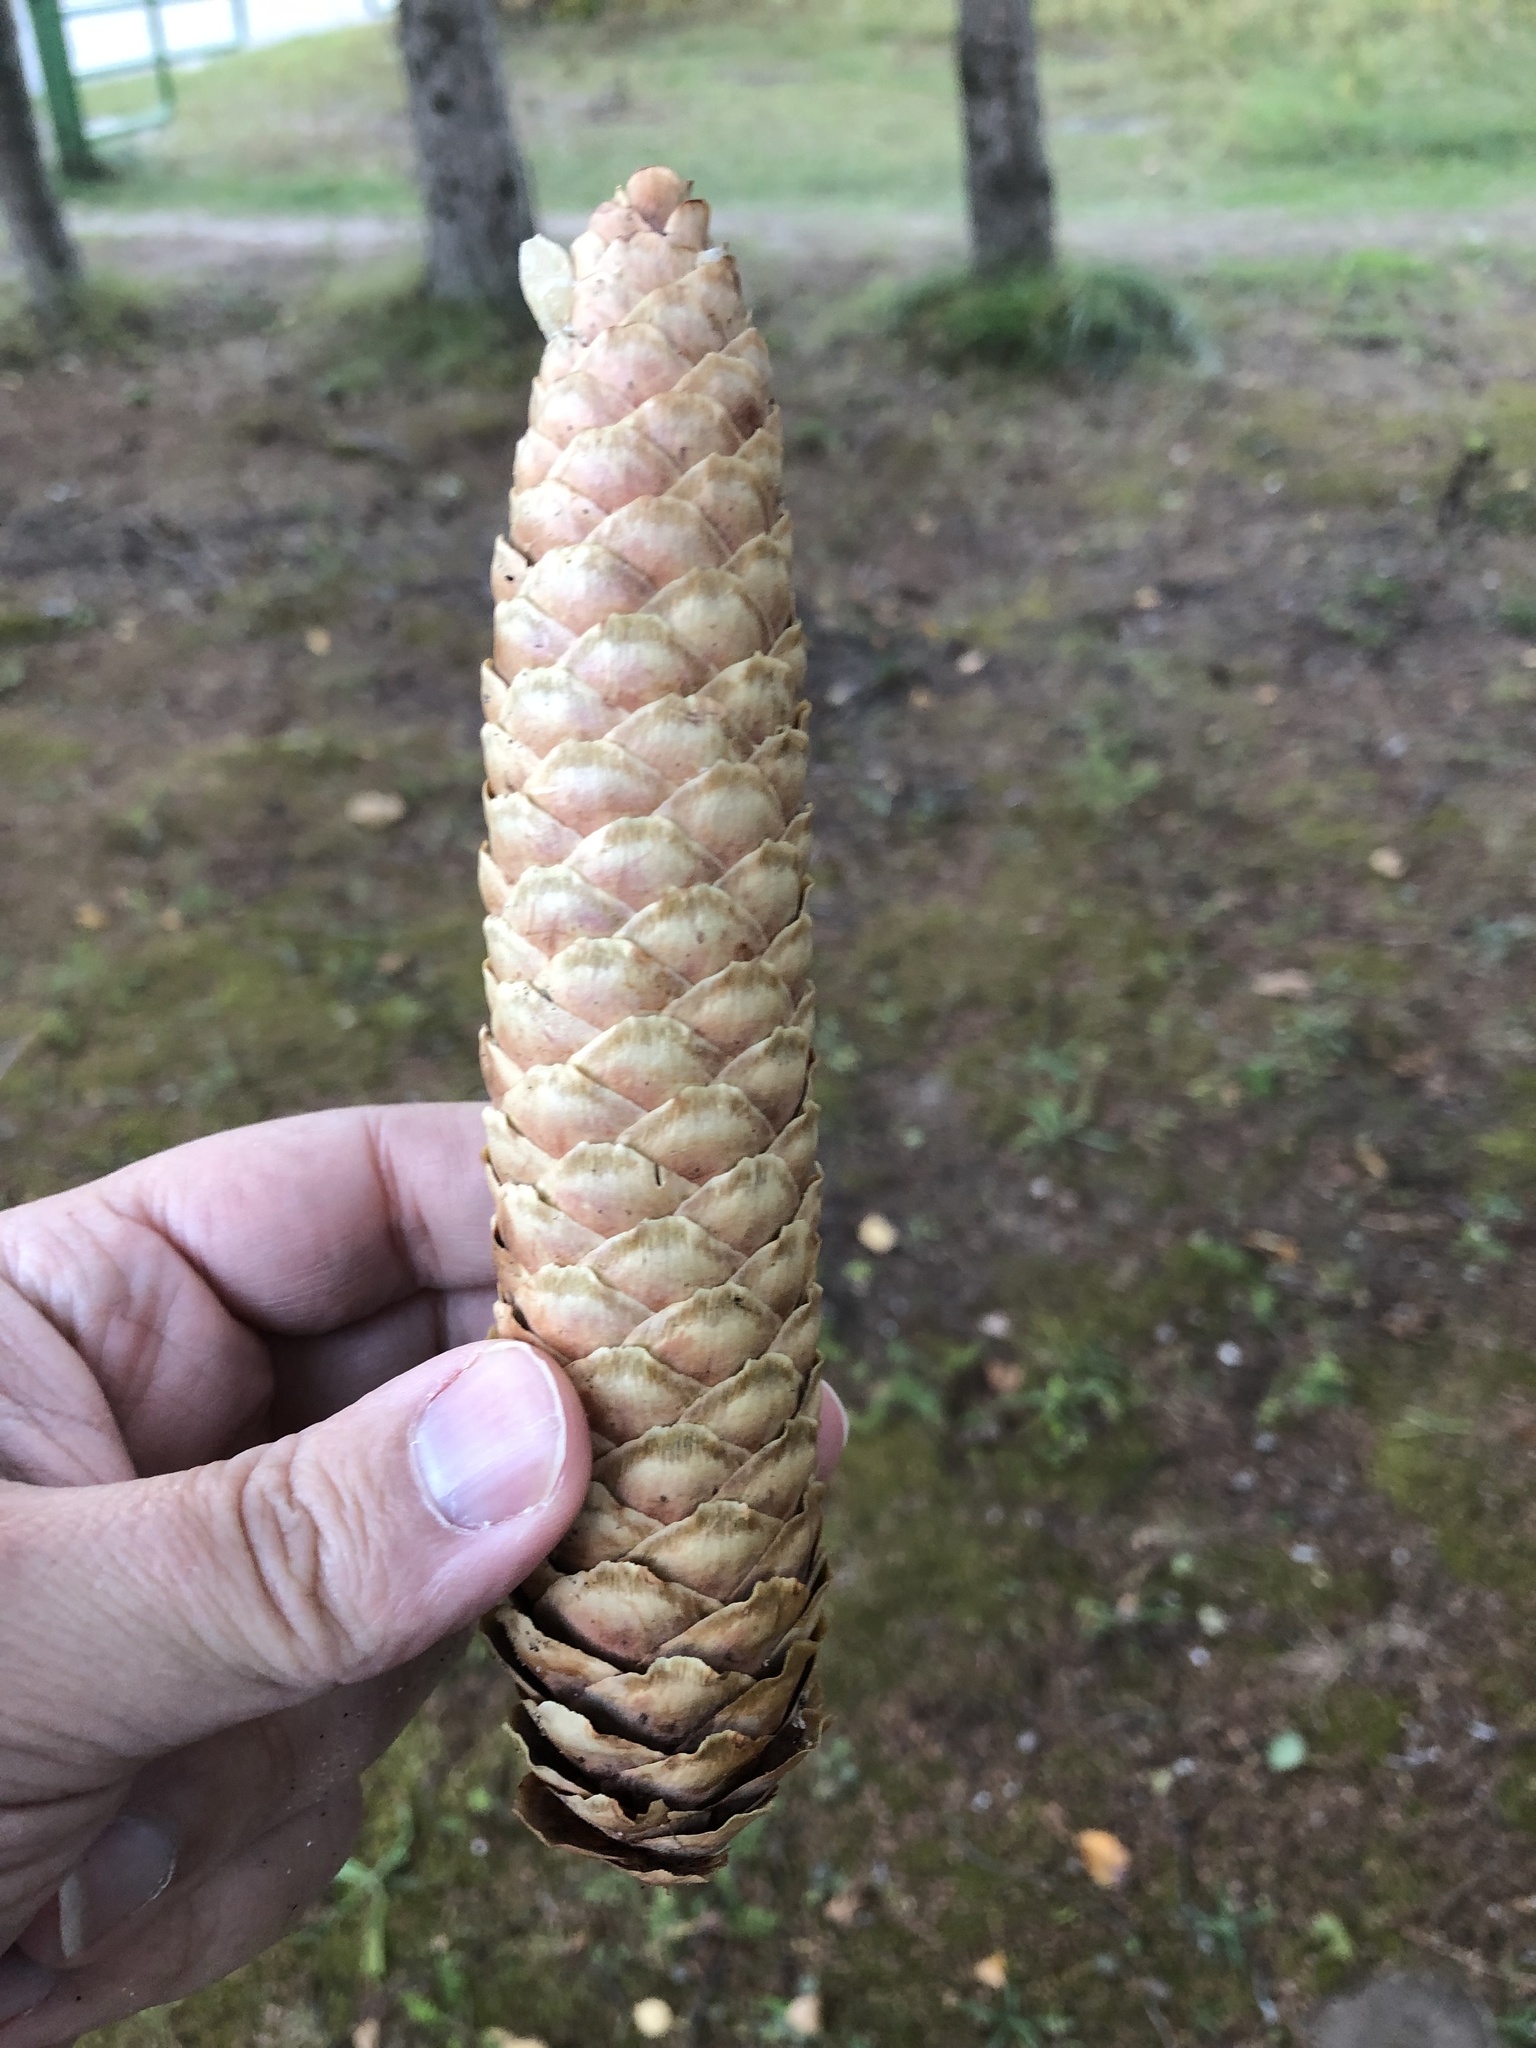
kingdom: Plantae
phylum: Tracheophyta
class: Pinopsida
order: Pinales
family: Pinaceae
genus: Picea
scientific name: Picea abies
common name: Norway spruce
